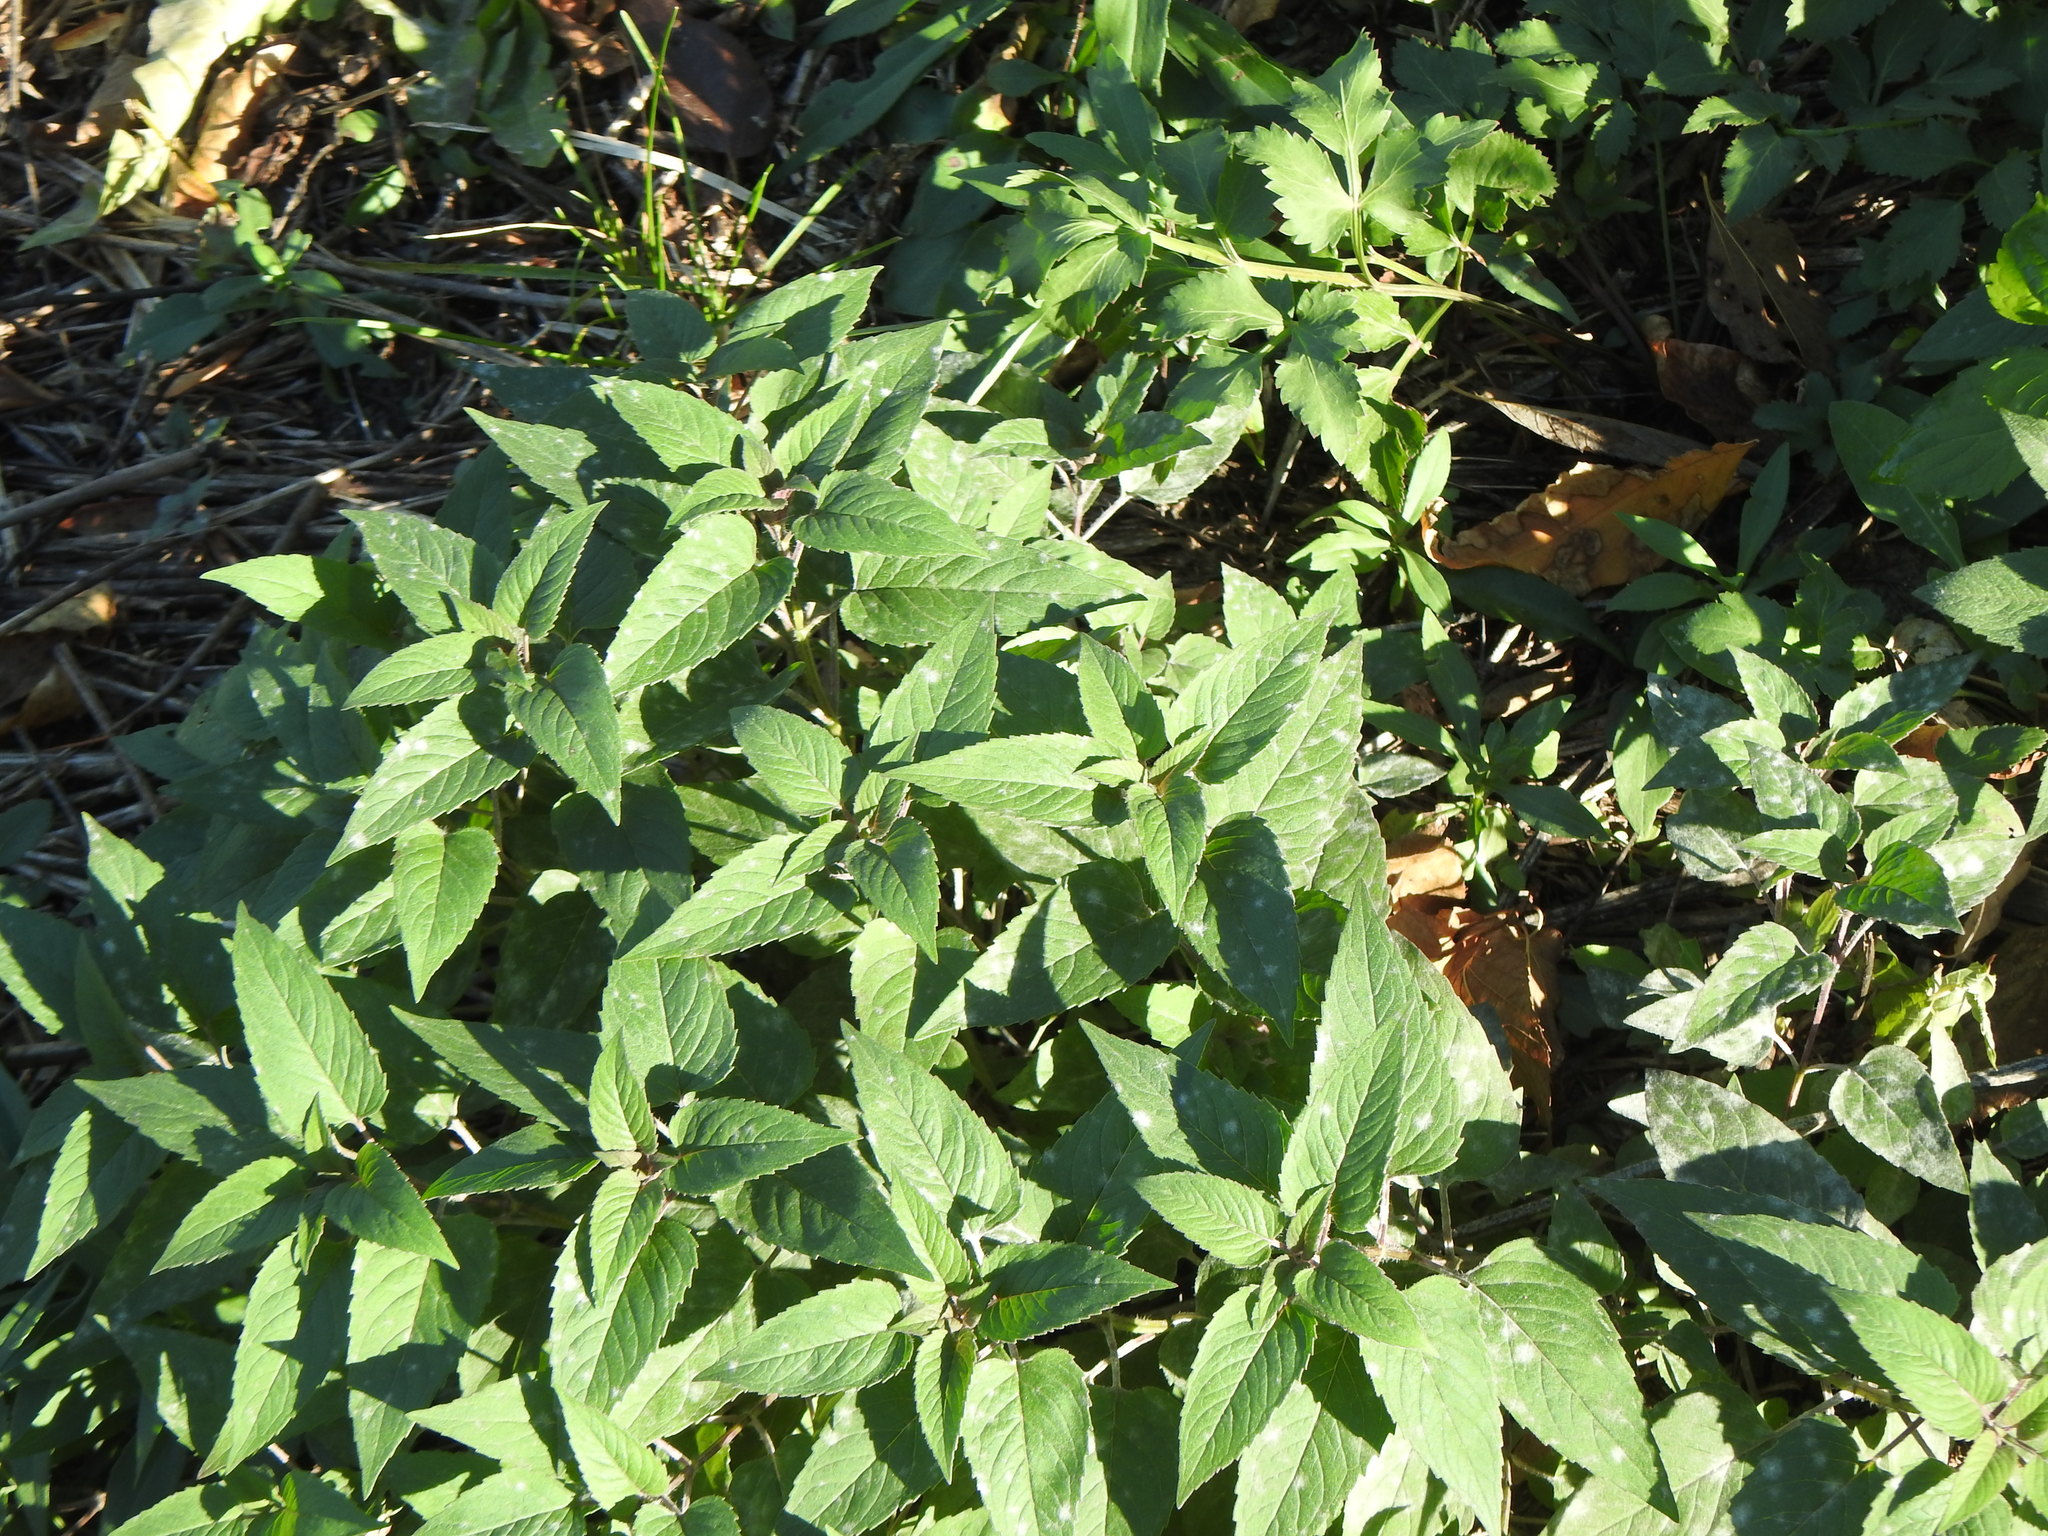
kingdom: Plantae
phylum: Tracheophyta
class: Magnoliopsida
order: Lamiales
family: Lamiaceae
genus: Monarda
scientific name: Monarda fistulosa
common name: Purple beebalm
